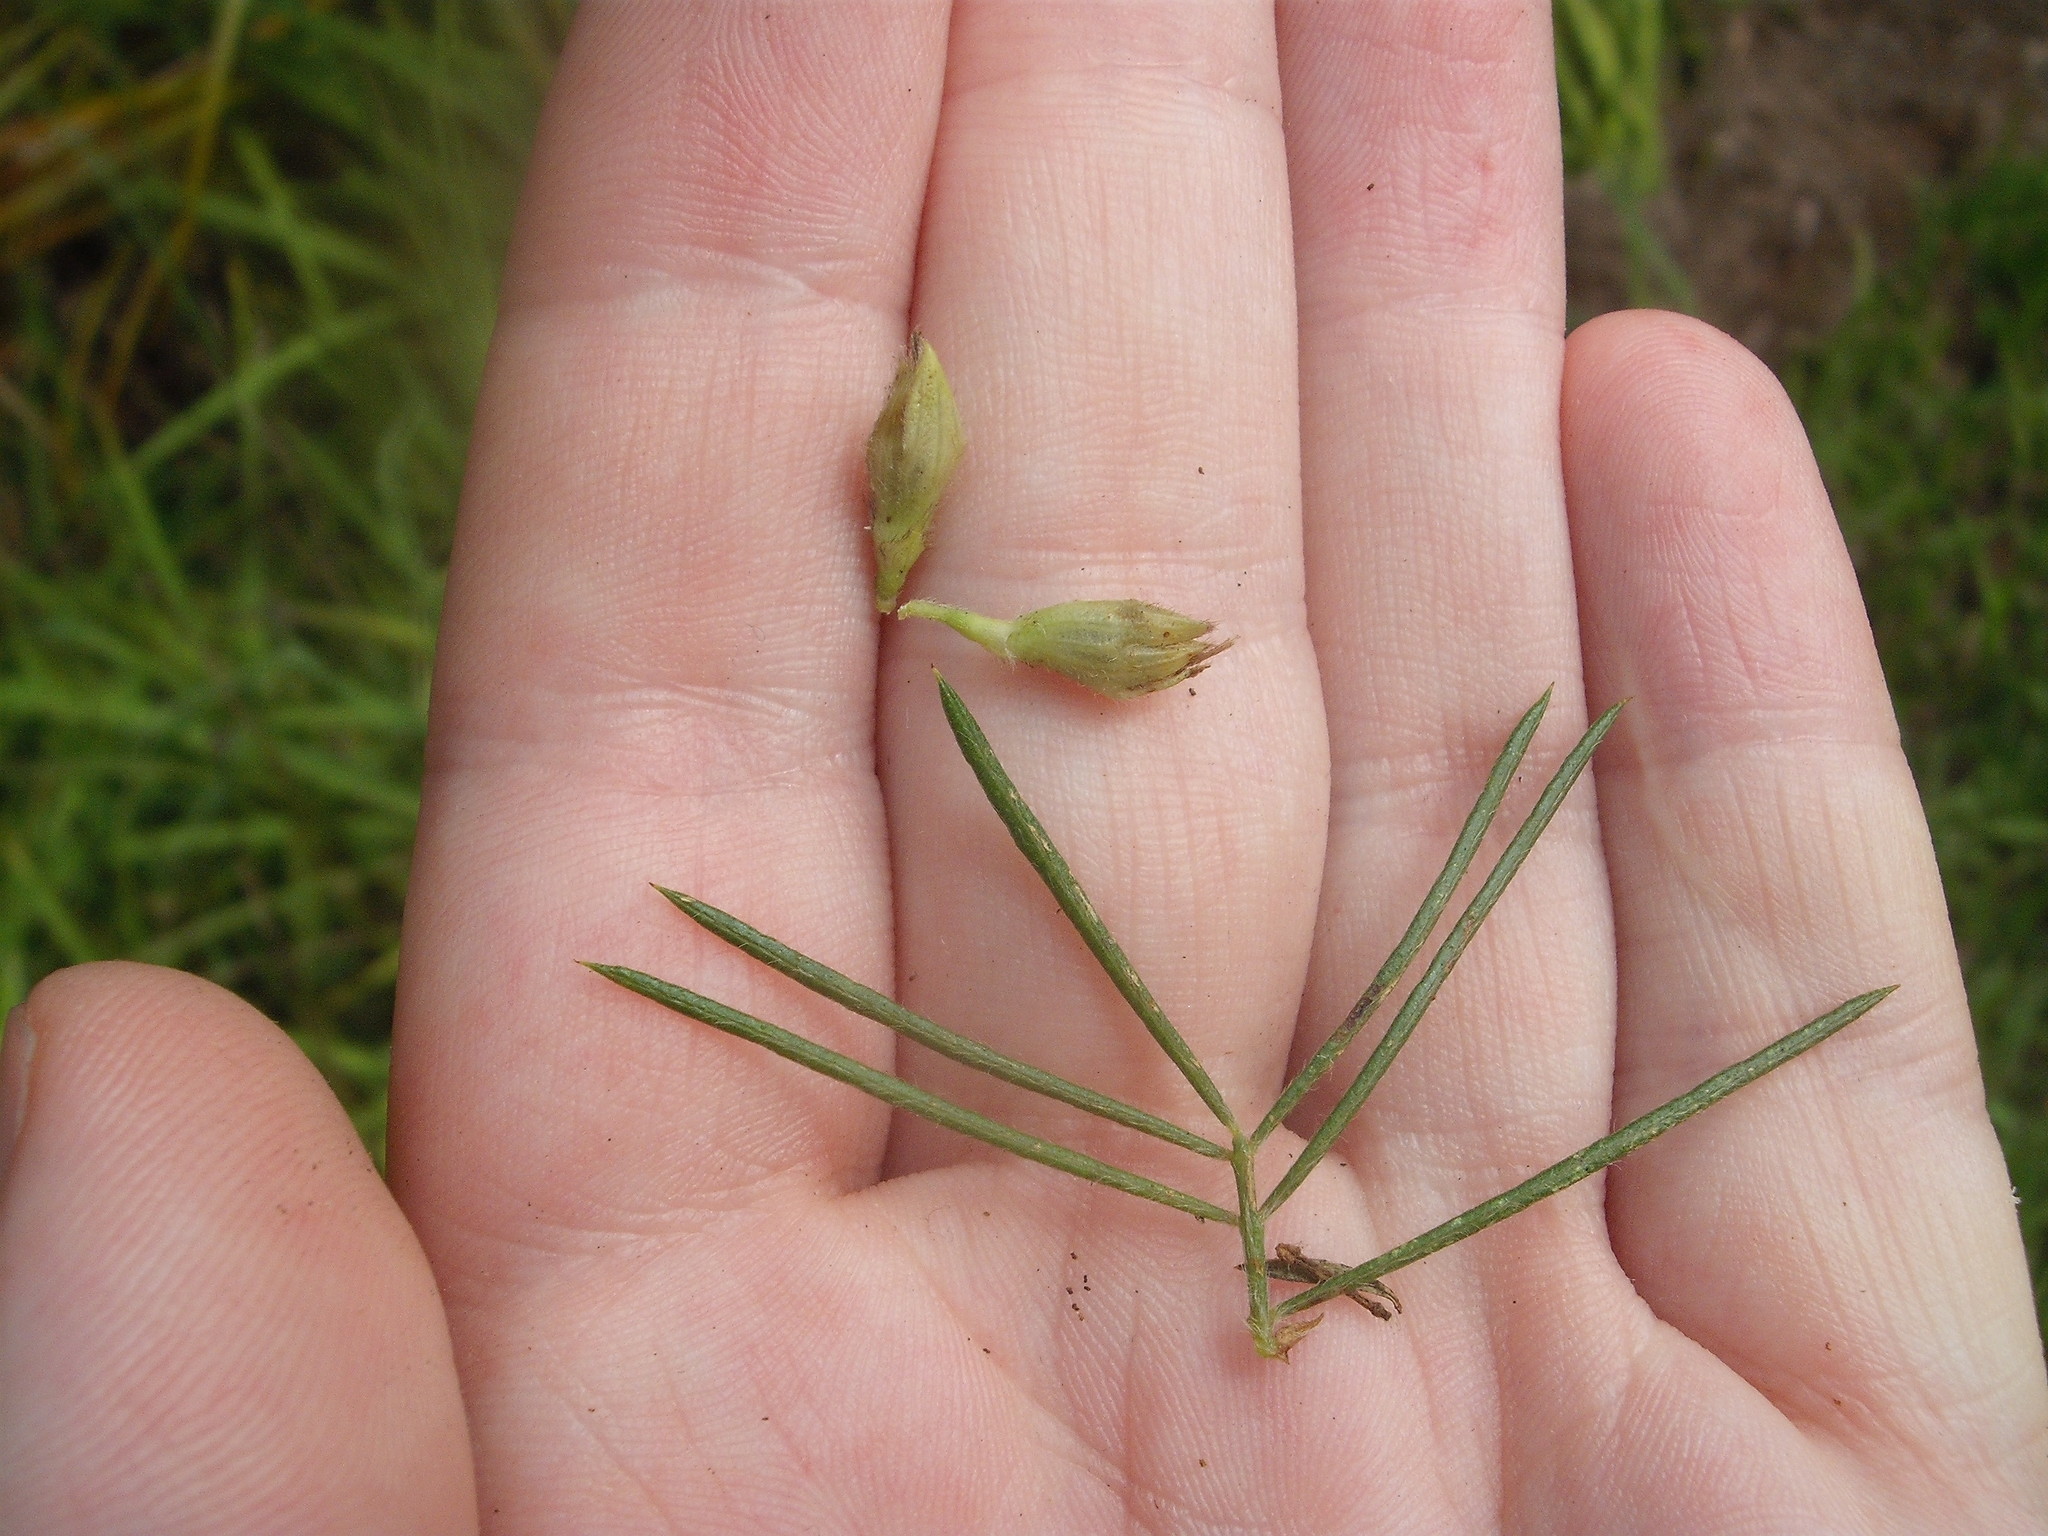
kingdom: Plantae
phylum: Tracheophyta
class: Magnoliopsida
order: Fabales
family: Fabaceae
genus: Psoralea
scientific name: Psoralea pinnata
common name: African scurfpea
